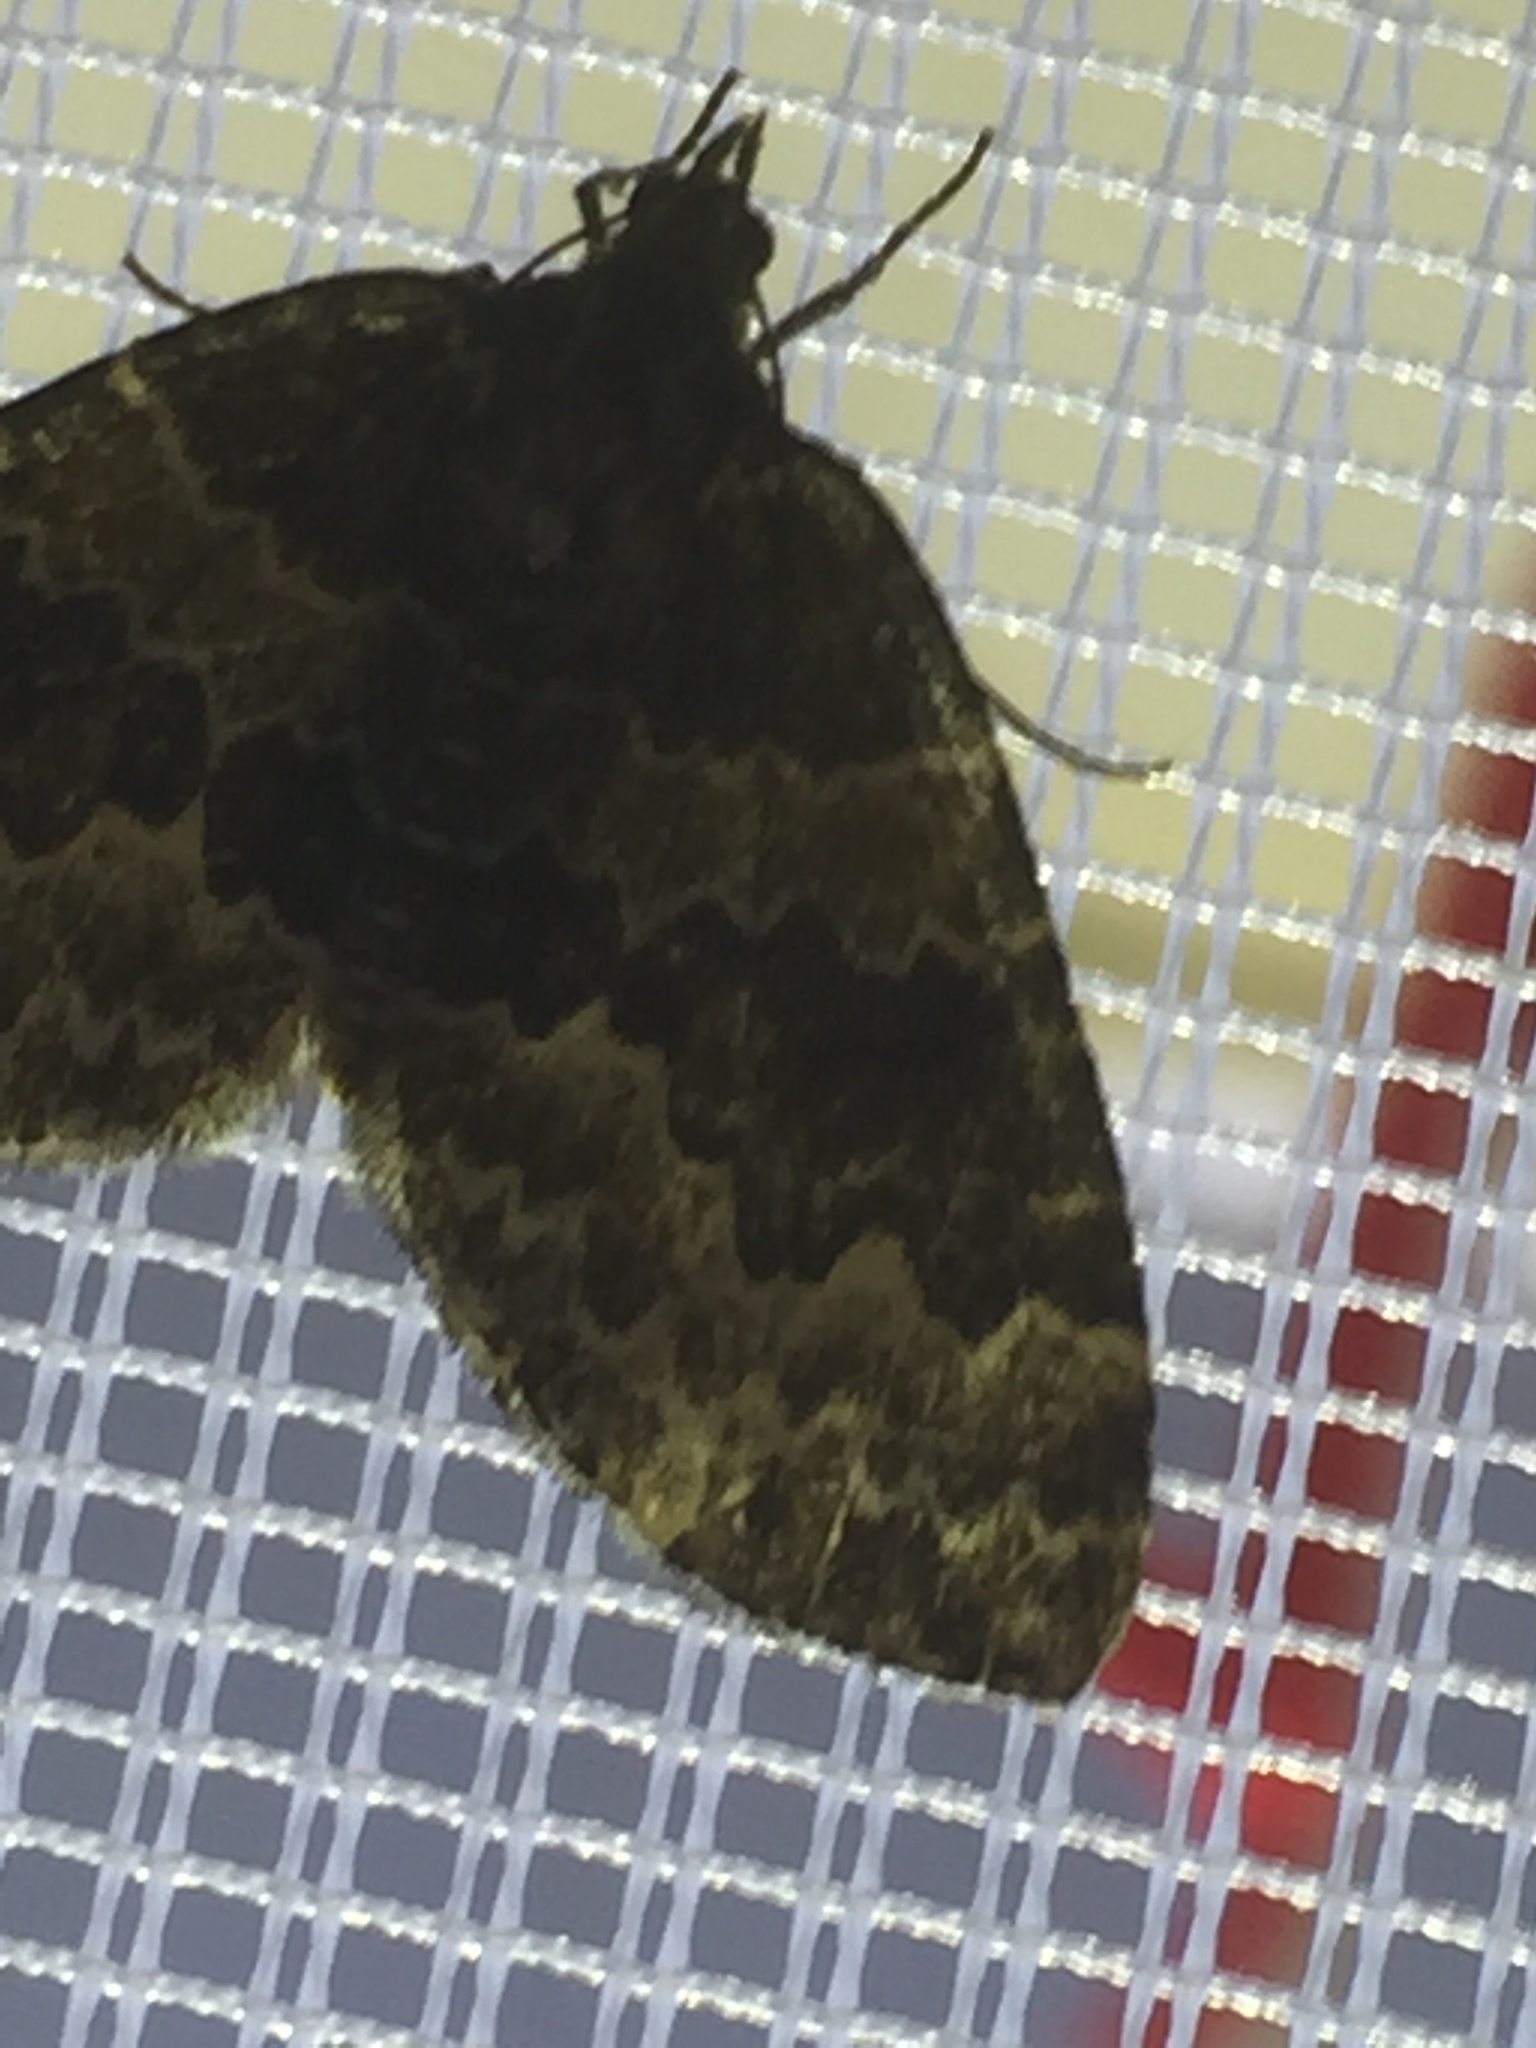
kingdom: Animalia
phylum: Arthropoda
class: Insecta
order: Lepidoptera
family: Geometridae
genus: Electrophaes
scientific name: Electrophaes corylata
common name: Broken-barred carpet
